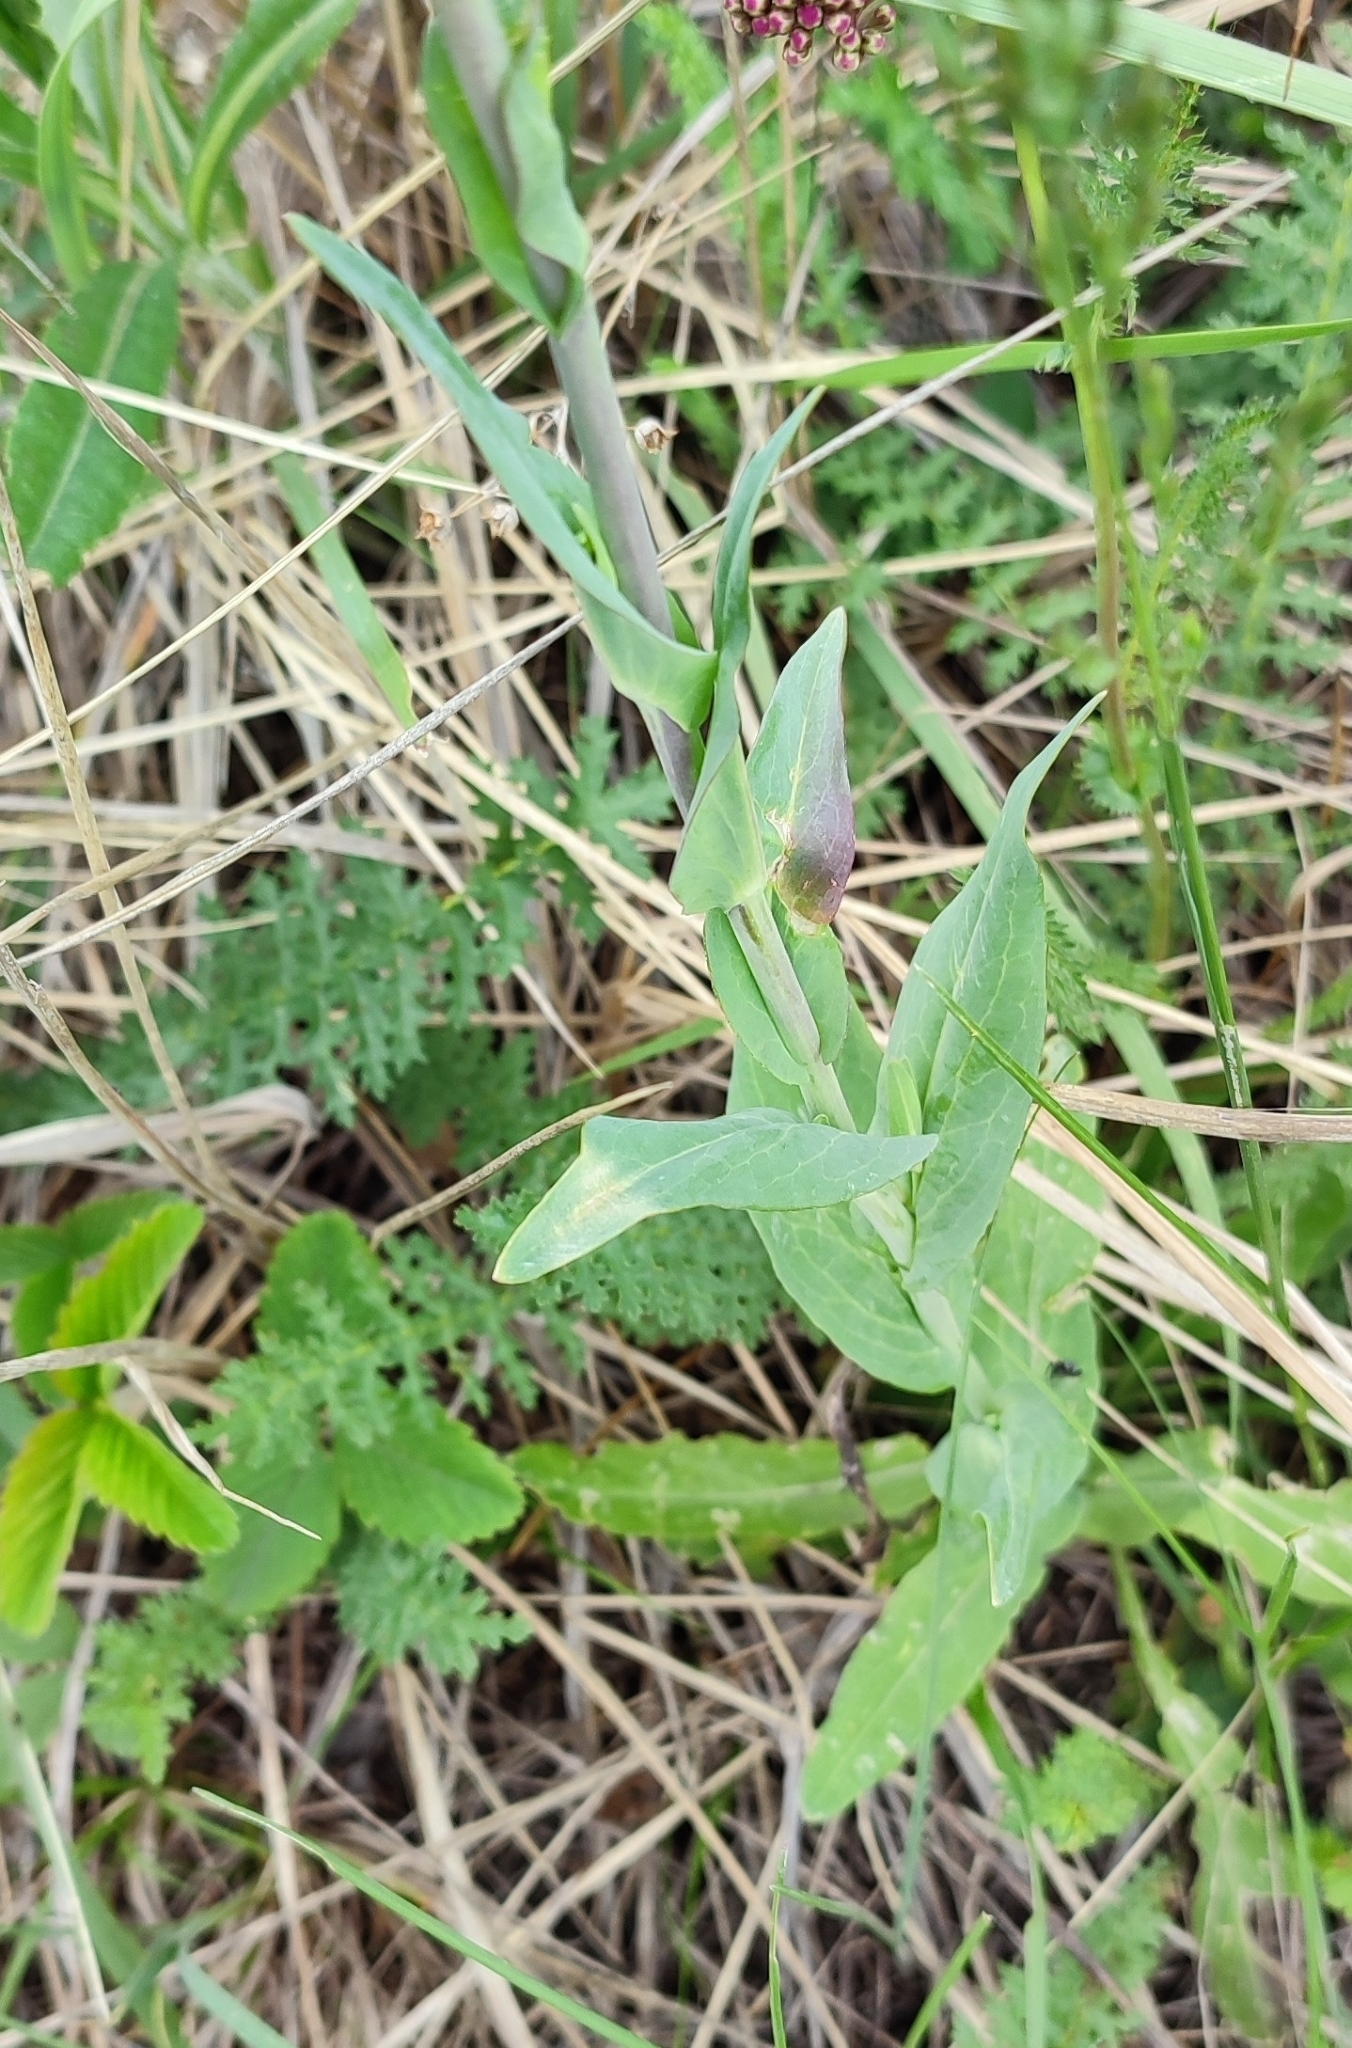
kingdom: Plantae
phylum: Tracheophyta
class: Magnoliopsida
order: Brassicales
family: Brassicaceae
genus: Turritis
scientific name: Turritis glabra
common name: Tower rockcress
